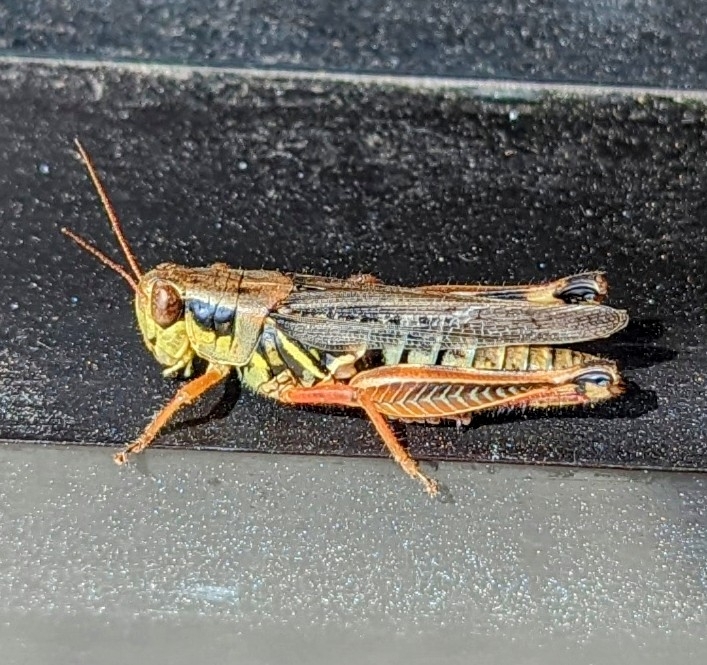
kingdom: Animalia
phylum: Arthropoda
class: Insecta
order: Orthoptera
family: Acrididae
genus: Melanoplus
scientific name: Melanoplus femurrubrum
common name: Red-legged grasshopper
